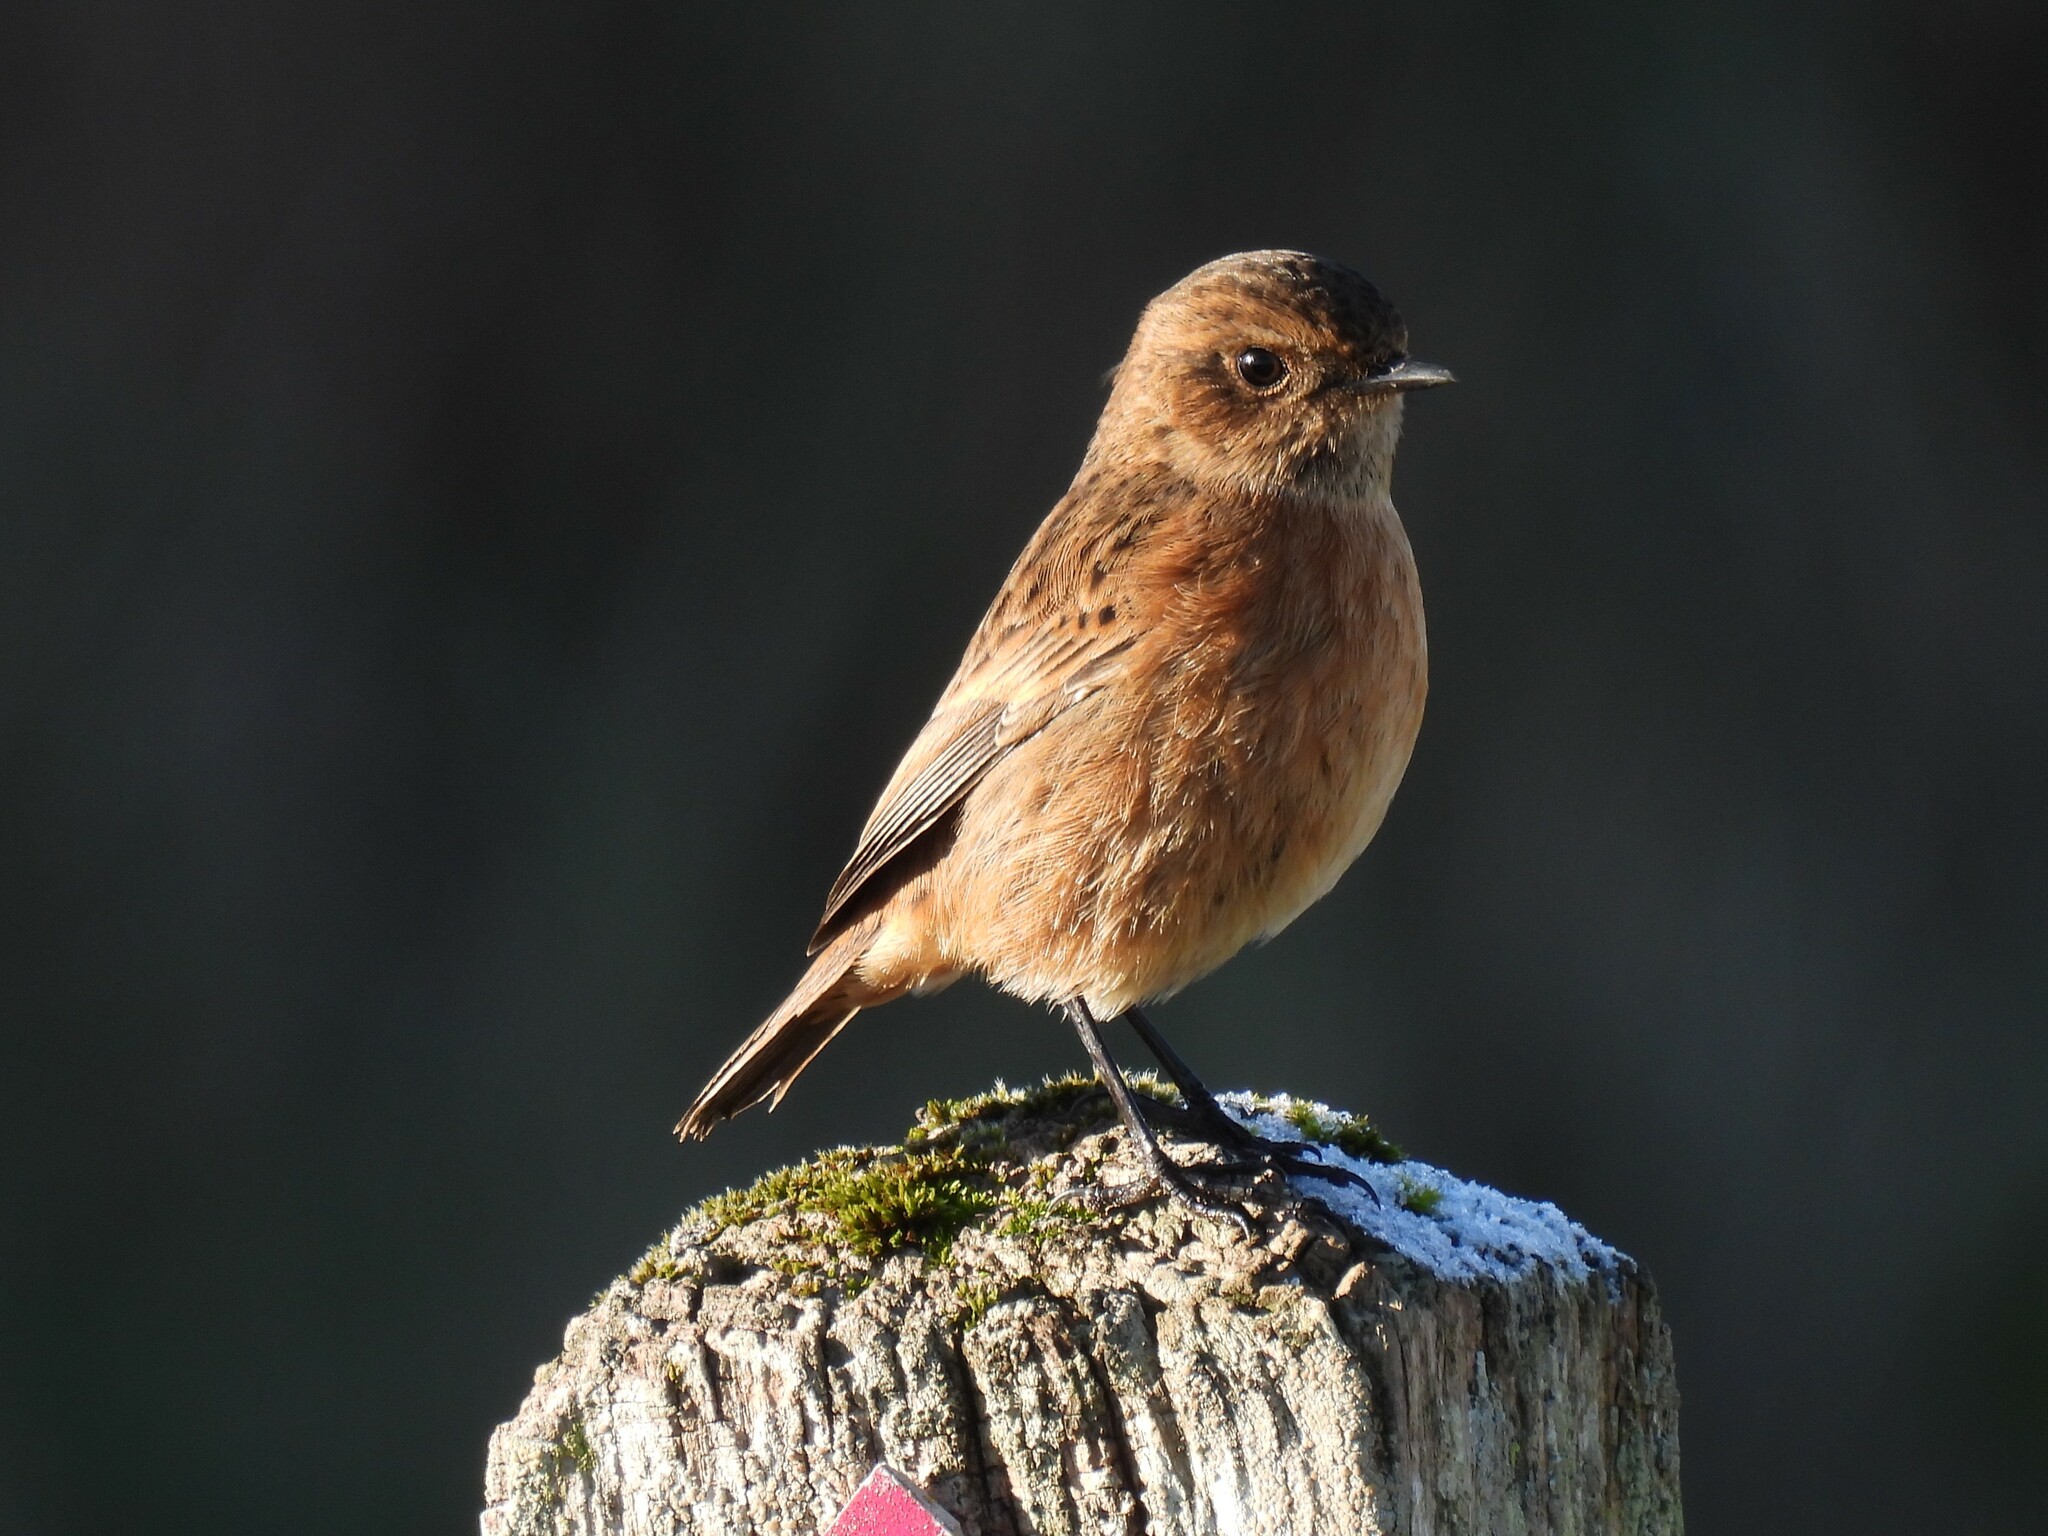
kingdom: Animalia
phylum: Chordata
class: Aves
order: Passeriformes
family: Muscicapidae
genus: Saxicola
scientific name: Saxicola rubicola
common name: European stonechat
